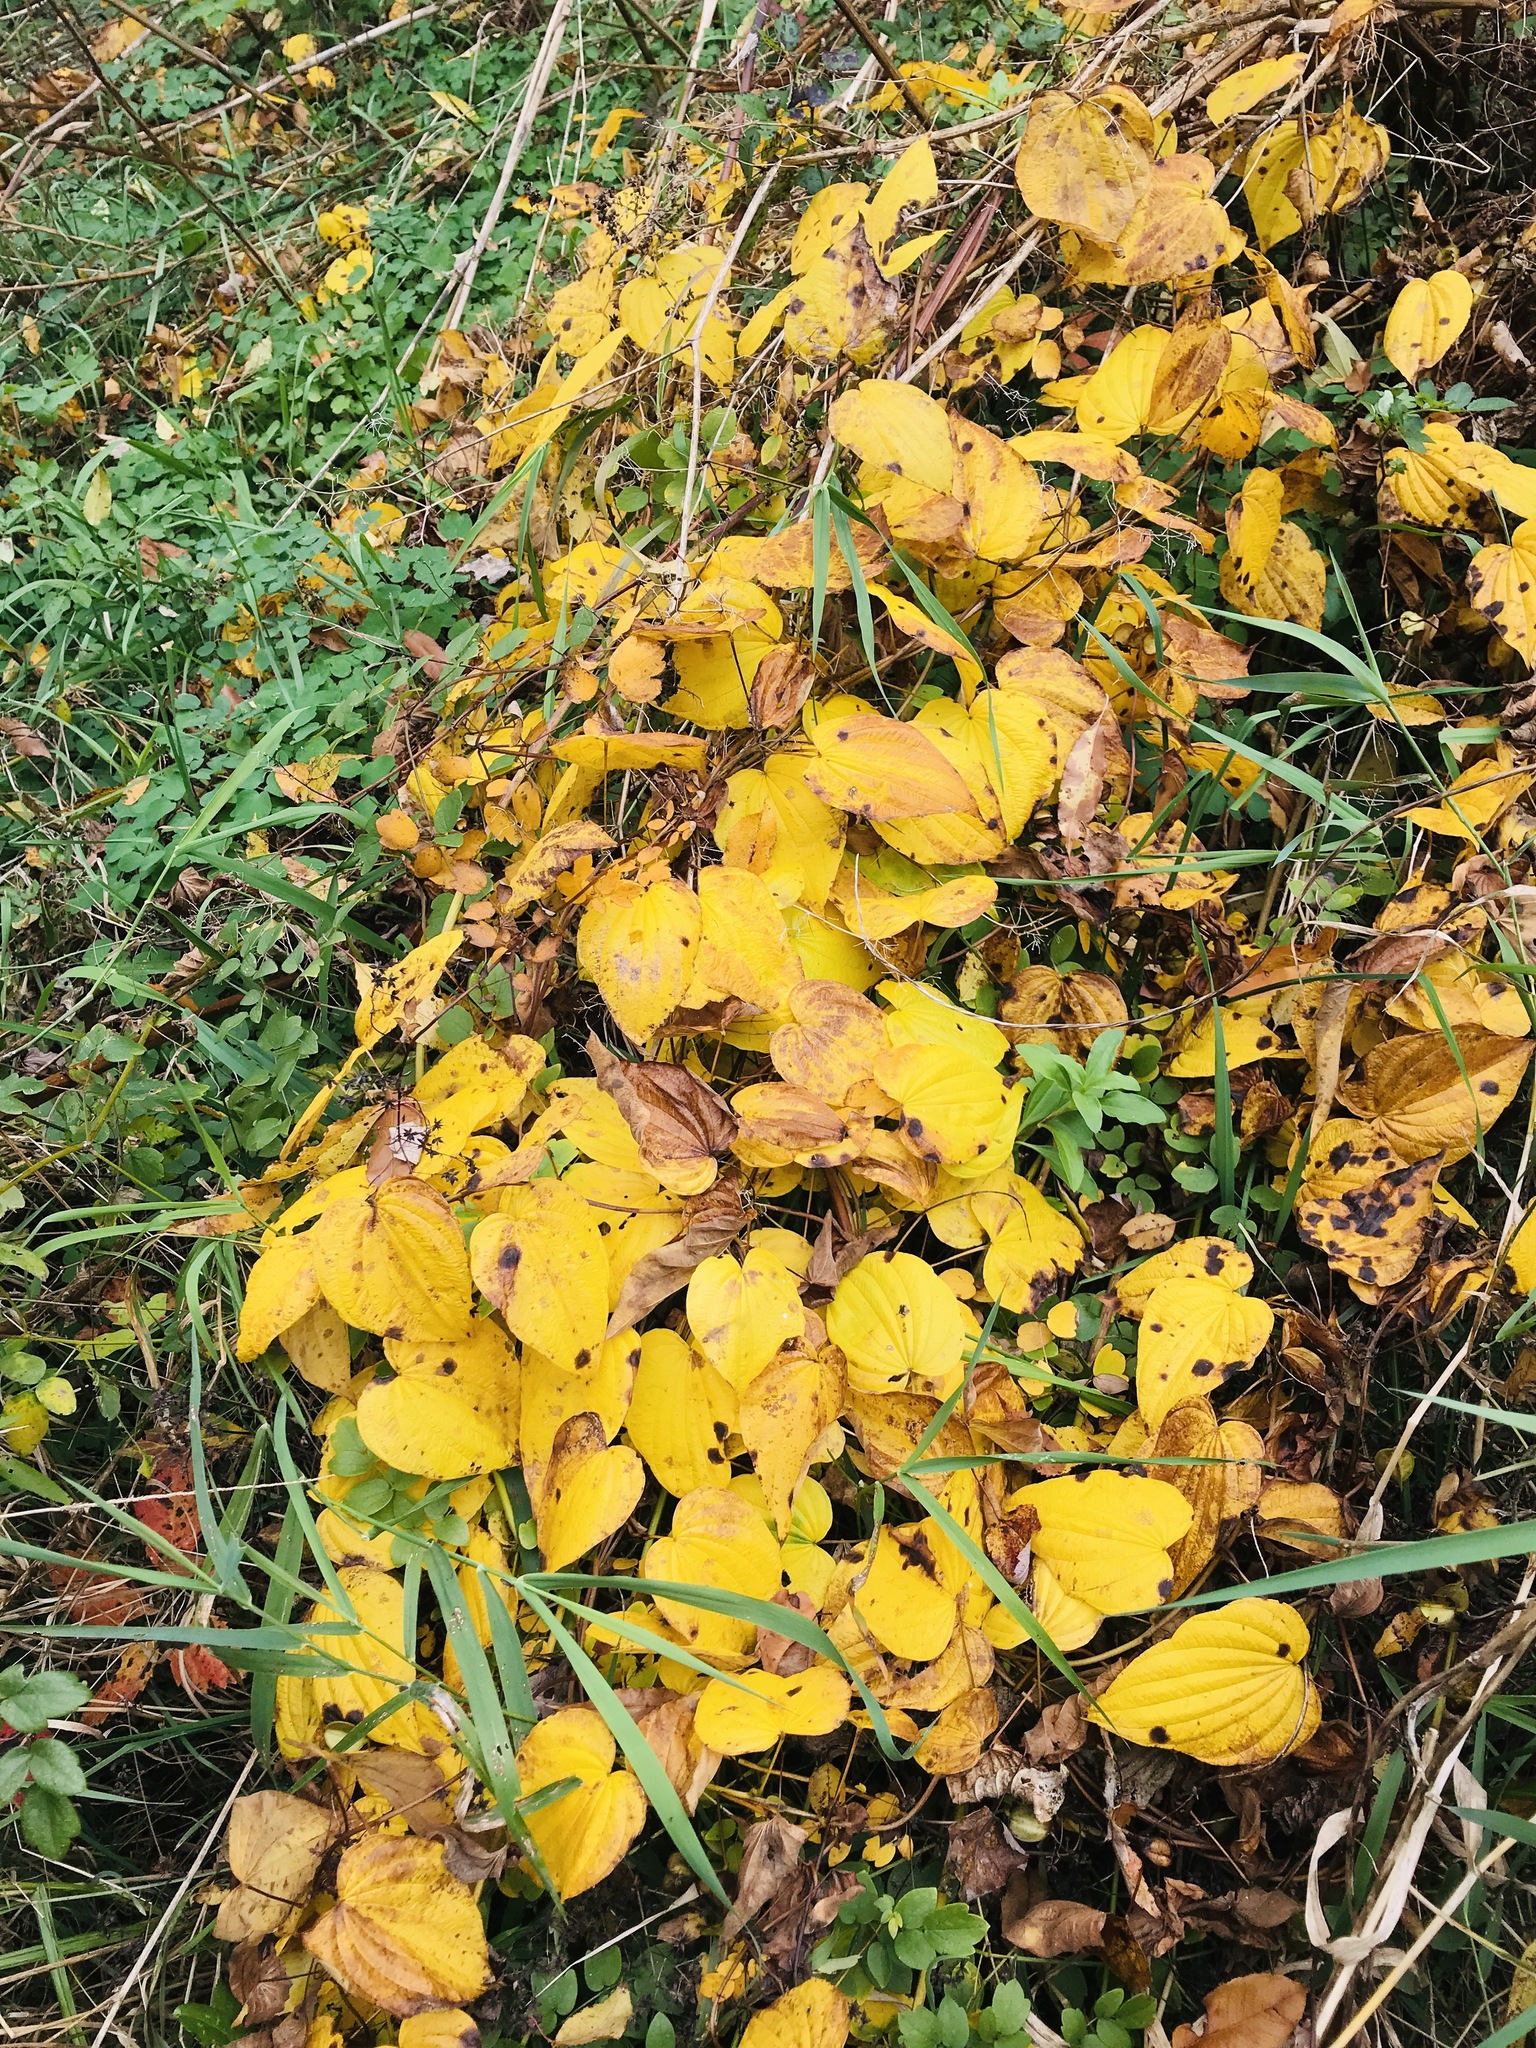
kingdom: Plantae
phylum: Tracheophyta
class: Liliopsida
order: Dioscoreales
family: Dioscoreaceae
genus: Dioscorea
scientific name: Dioscorea villosa
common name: Wild yam
